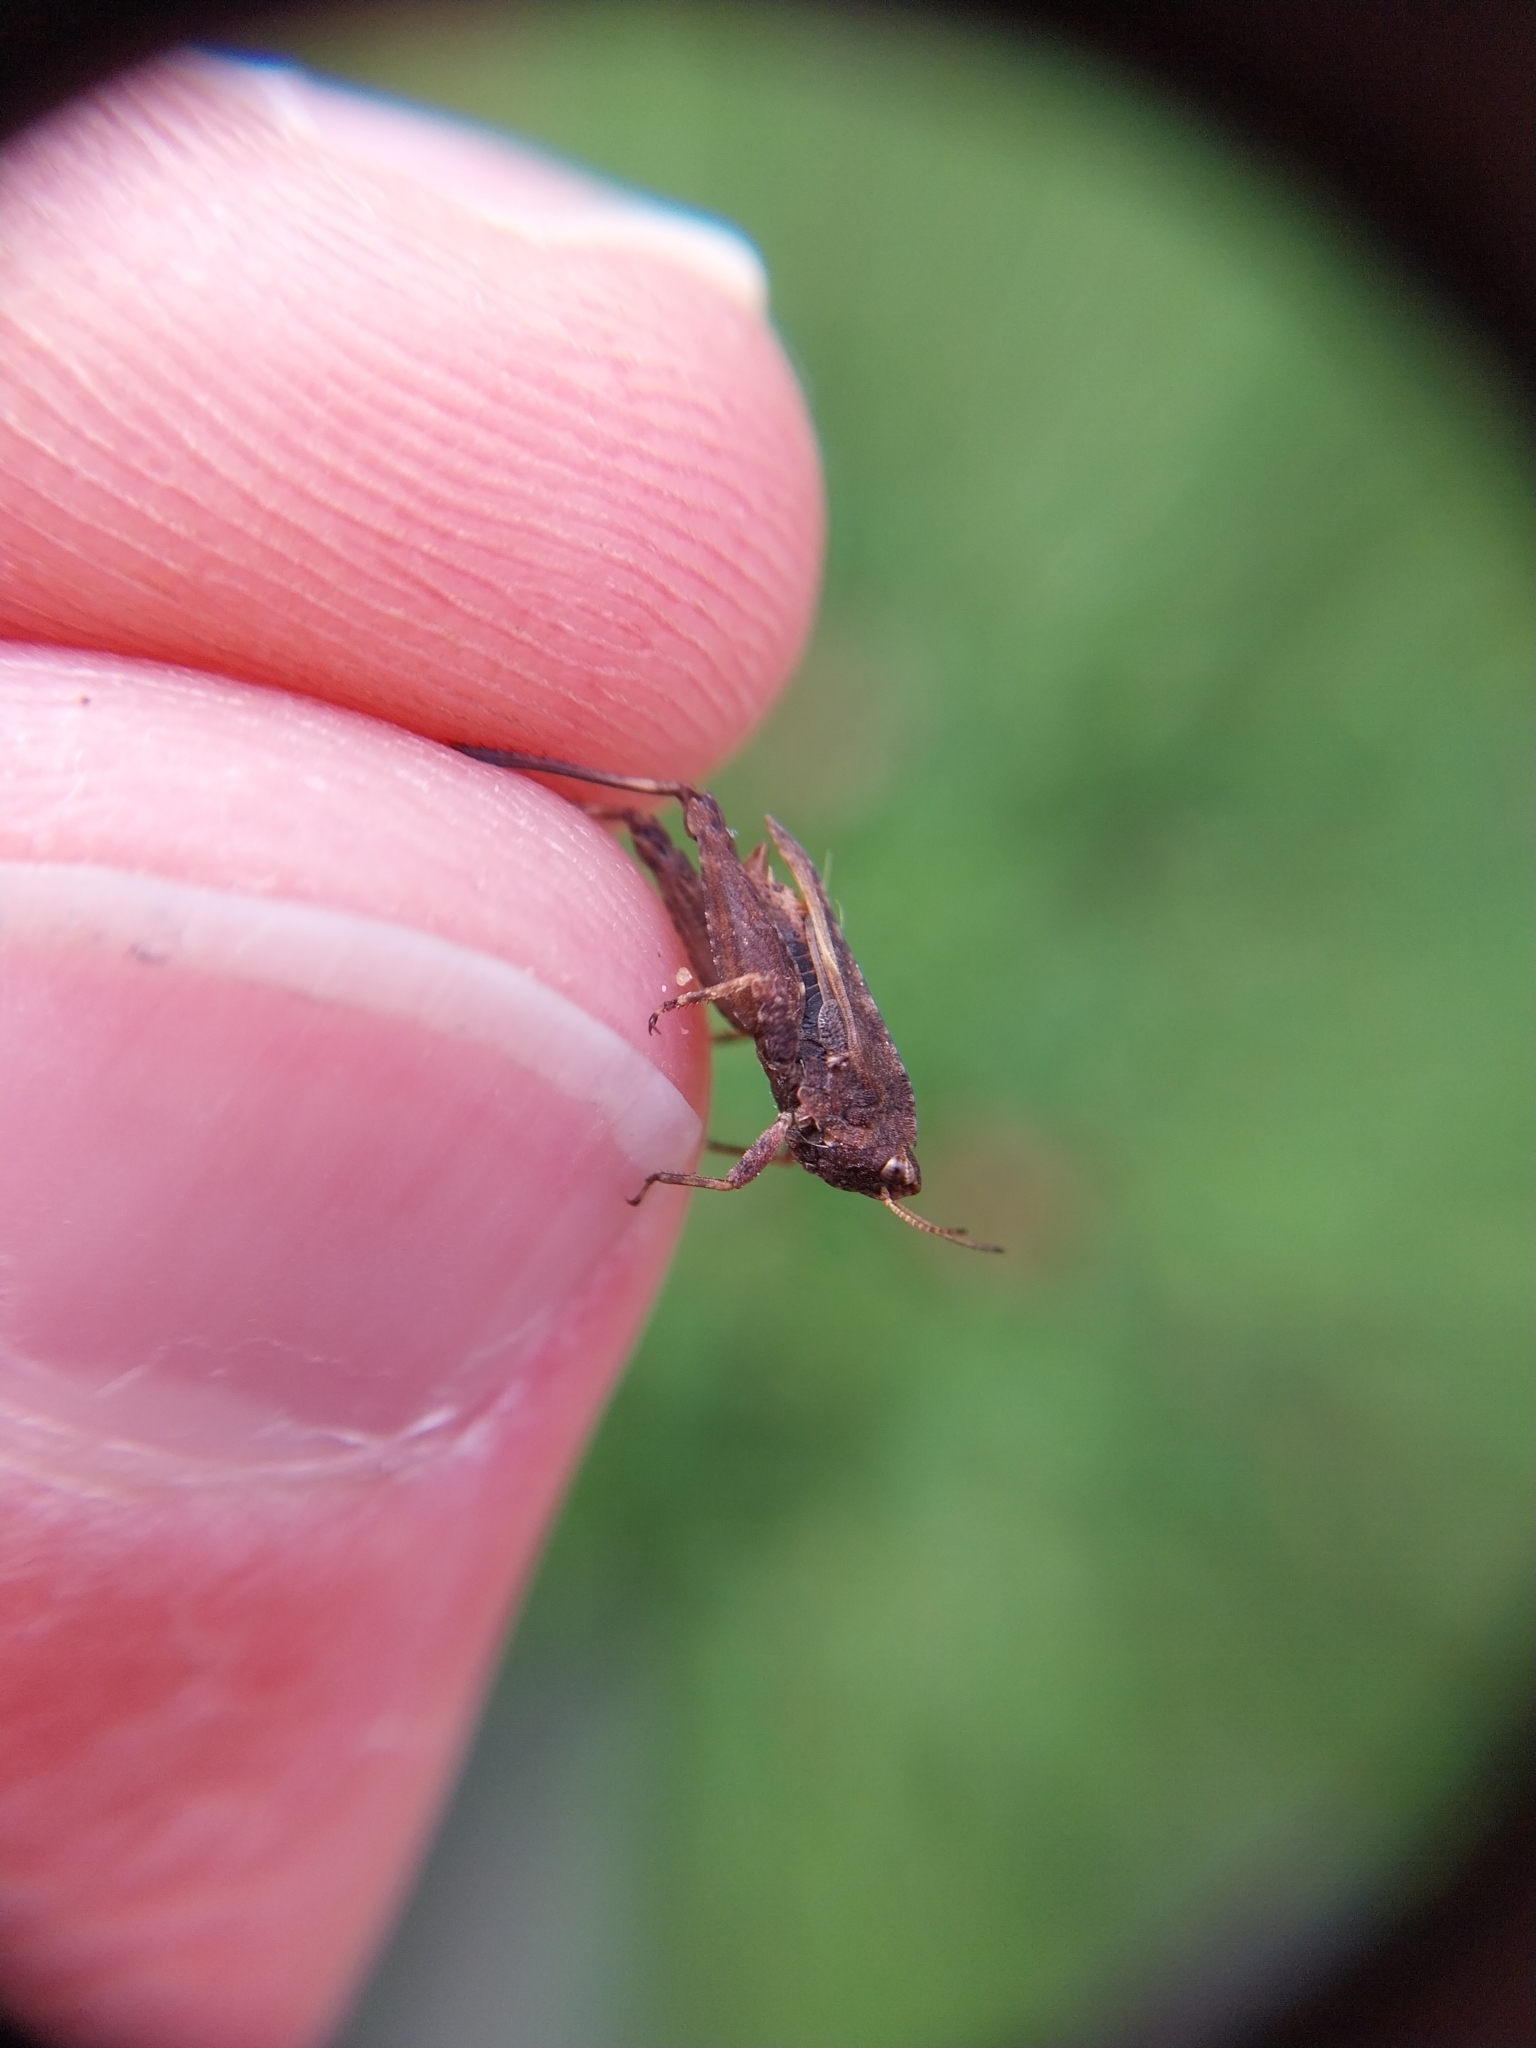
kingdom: Animalia
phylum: Arthropoda
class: Insecta
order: Orthoptera
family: Tetrigidae
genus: Tetrix
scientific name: Tetrix undulata
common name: Common groundhopper
